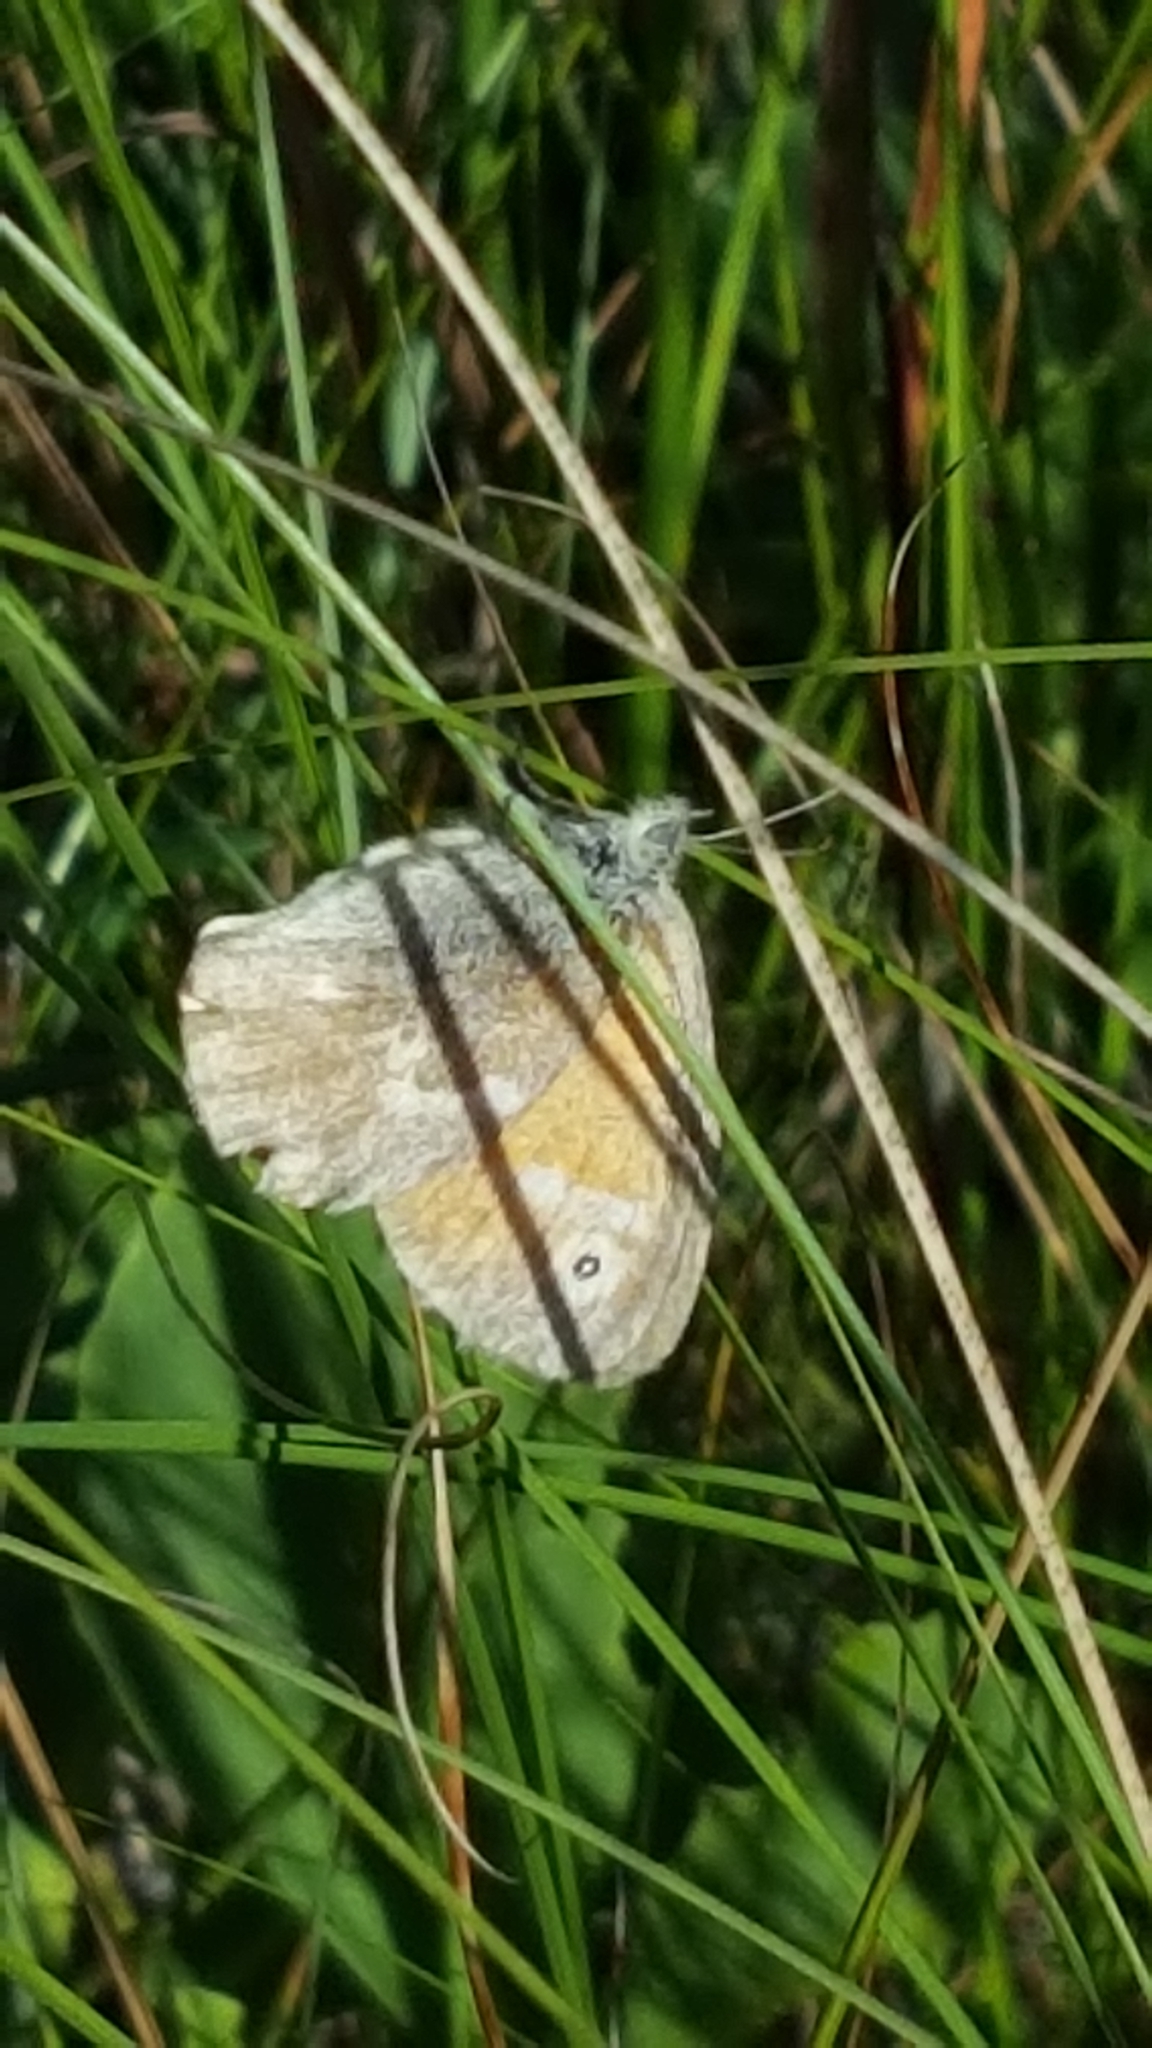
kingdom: Animalia
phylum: Arthropoda
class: Insecta
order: Lepidoptera
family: Nymphalidae
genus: Coenonympha
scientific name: Coenonympha california
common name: Common ringlet
